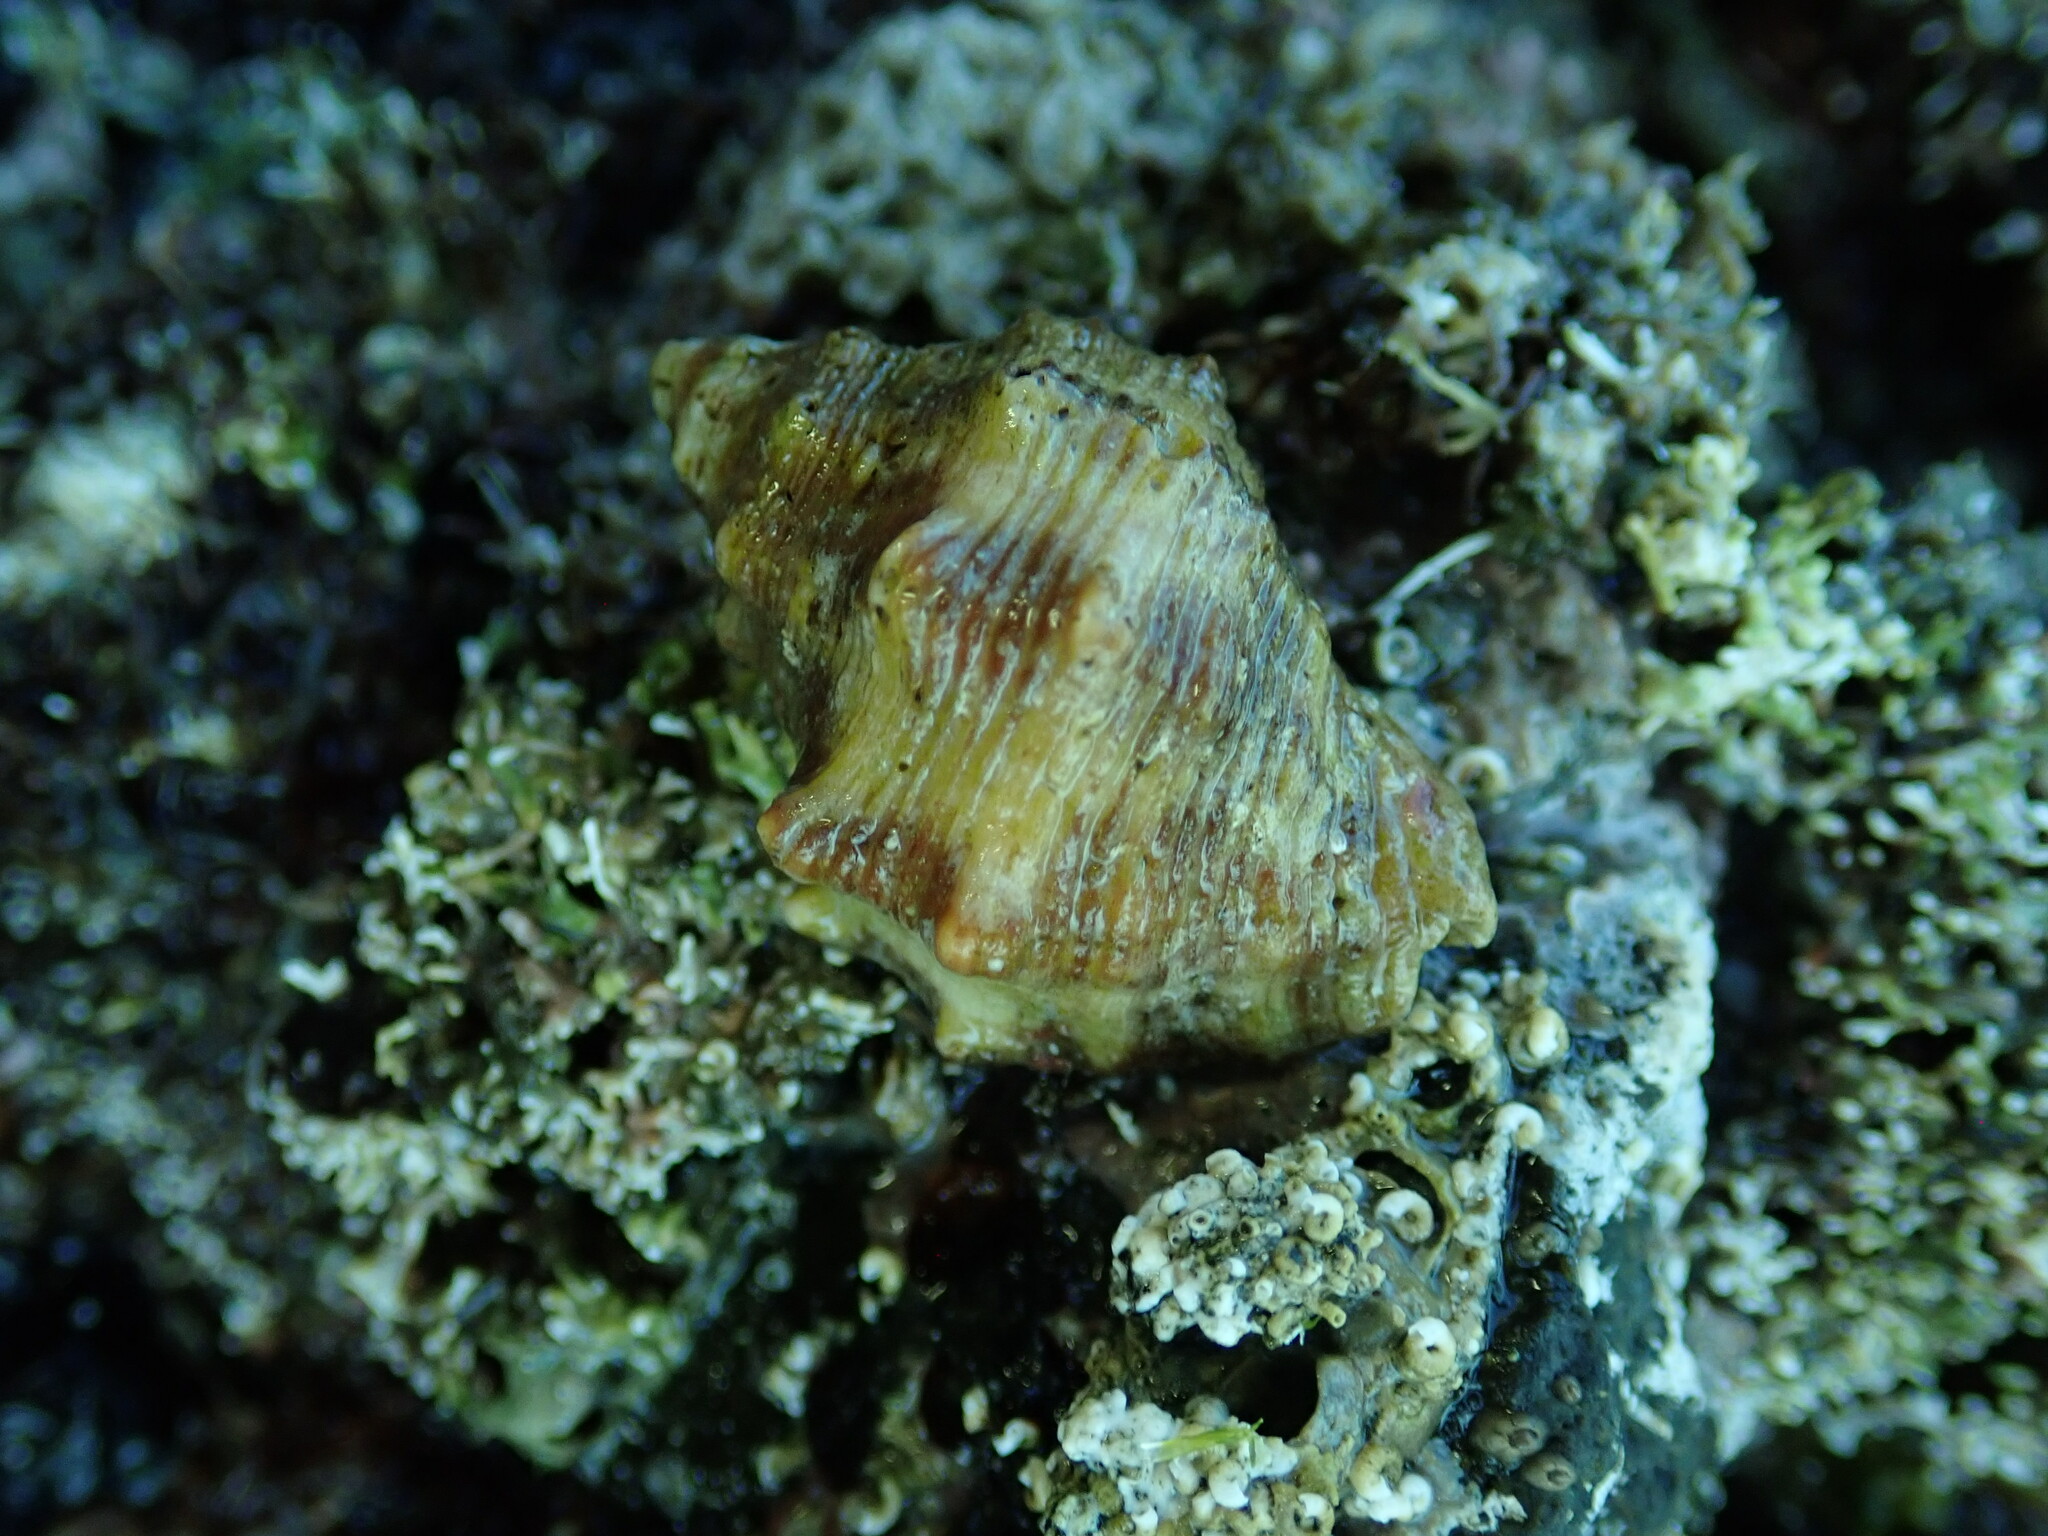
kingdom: Animalia
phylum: Mollusca
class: Gastropoda
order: Neogastropoda
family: Muricidae
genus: Stramonita
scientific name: Stramonita biserialis
